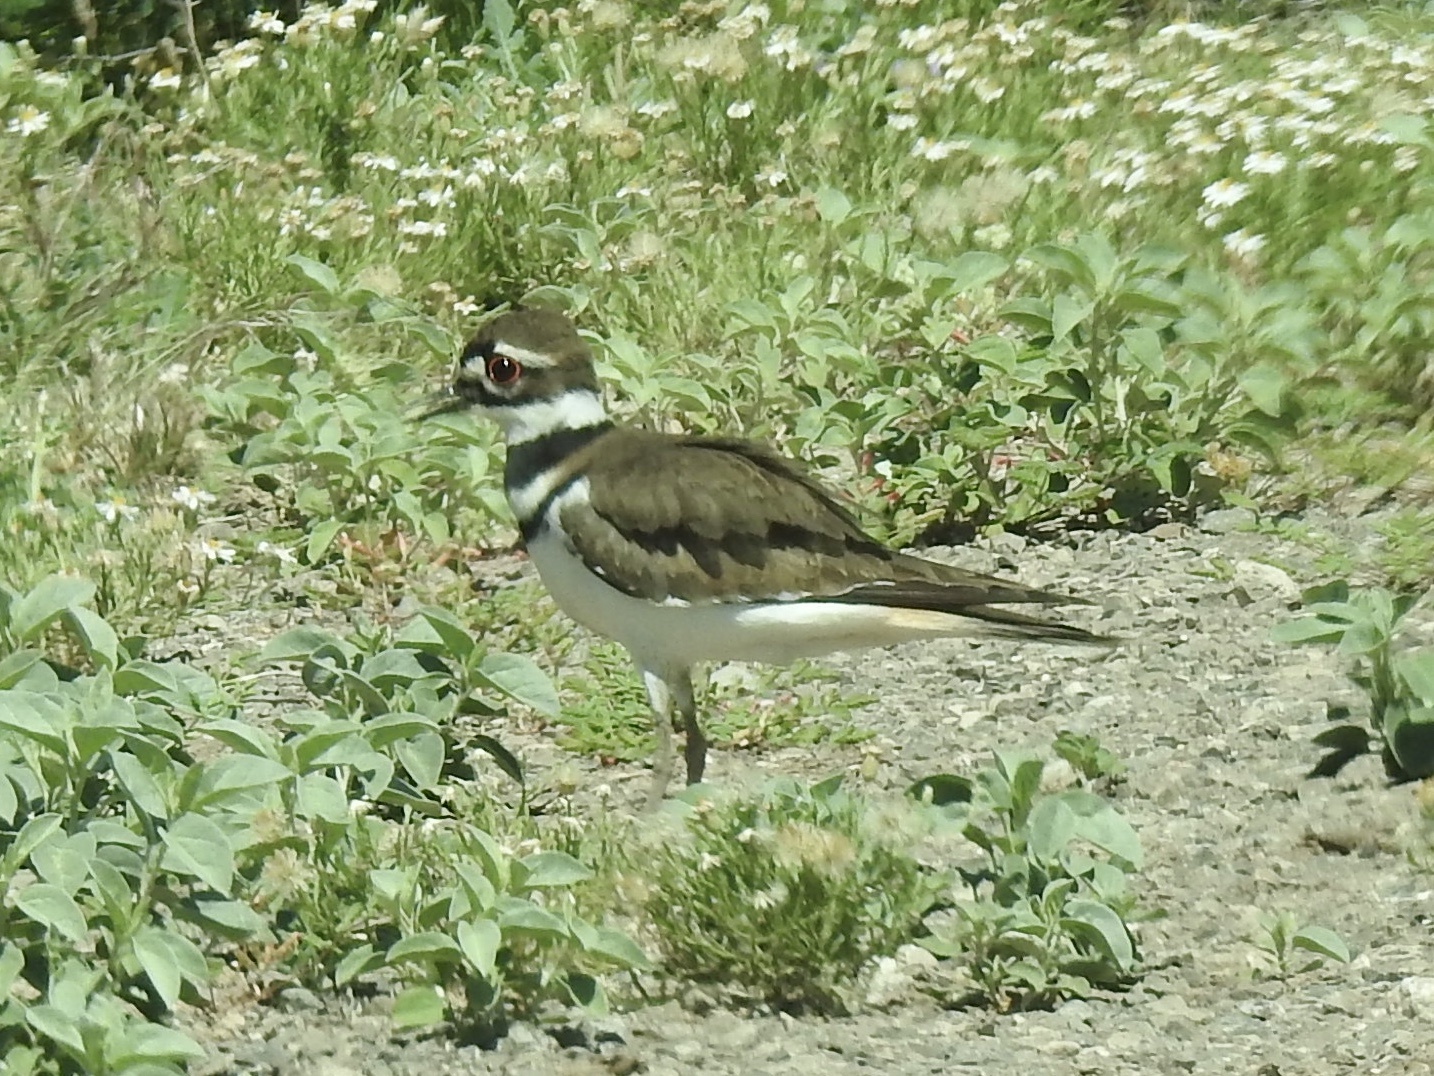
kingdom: Animalia
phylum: Chordata
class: Aves
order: Charadriiformes
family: Charadriidae
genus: Charadrius
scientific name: Charadrius vociferus
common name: Killdeer
